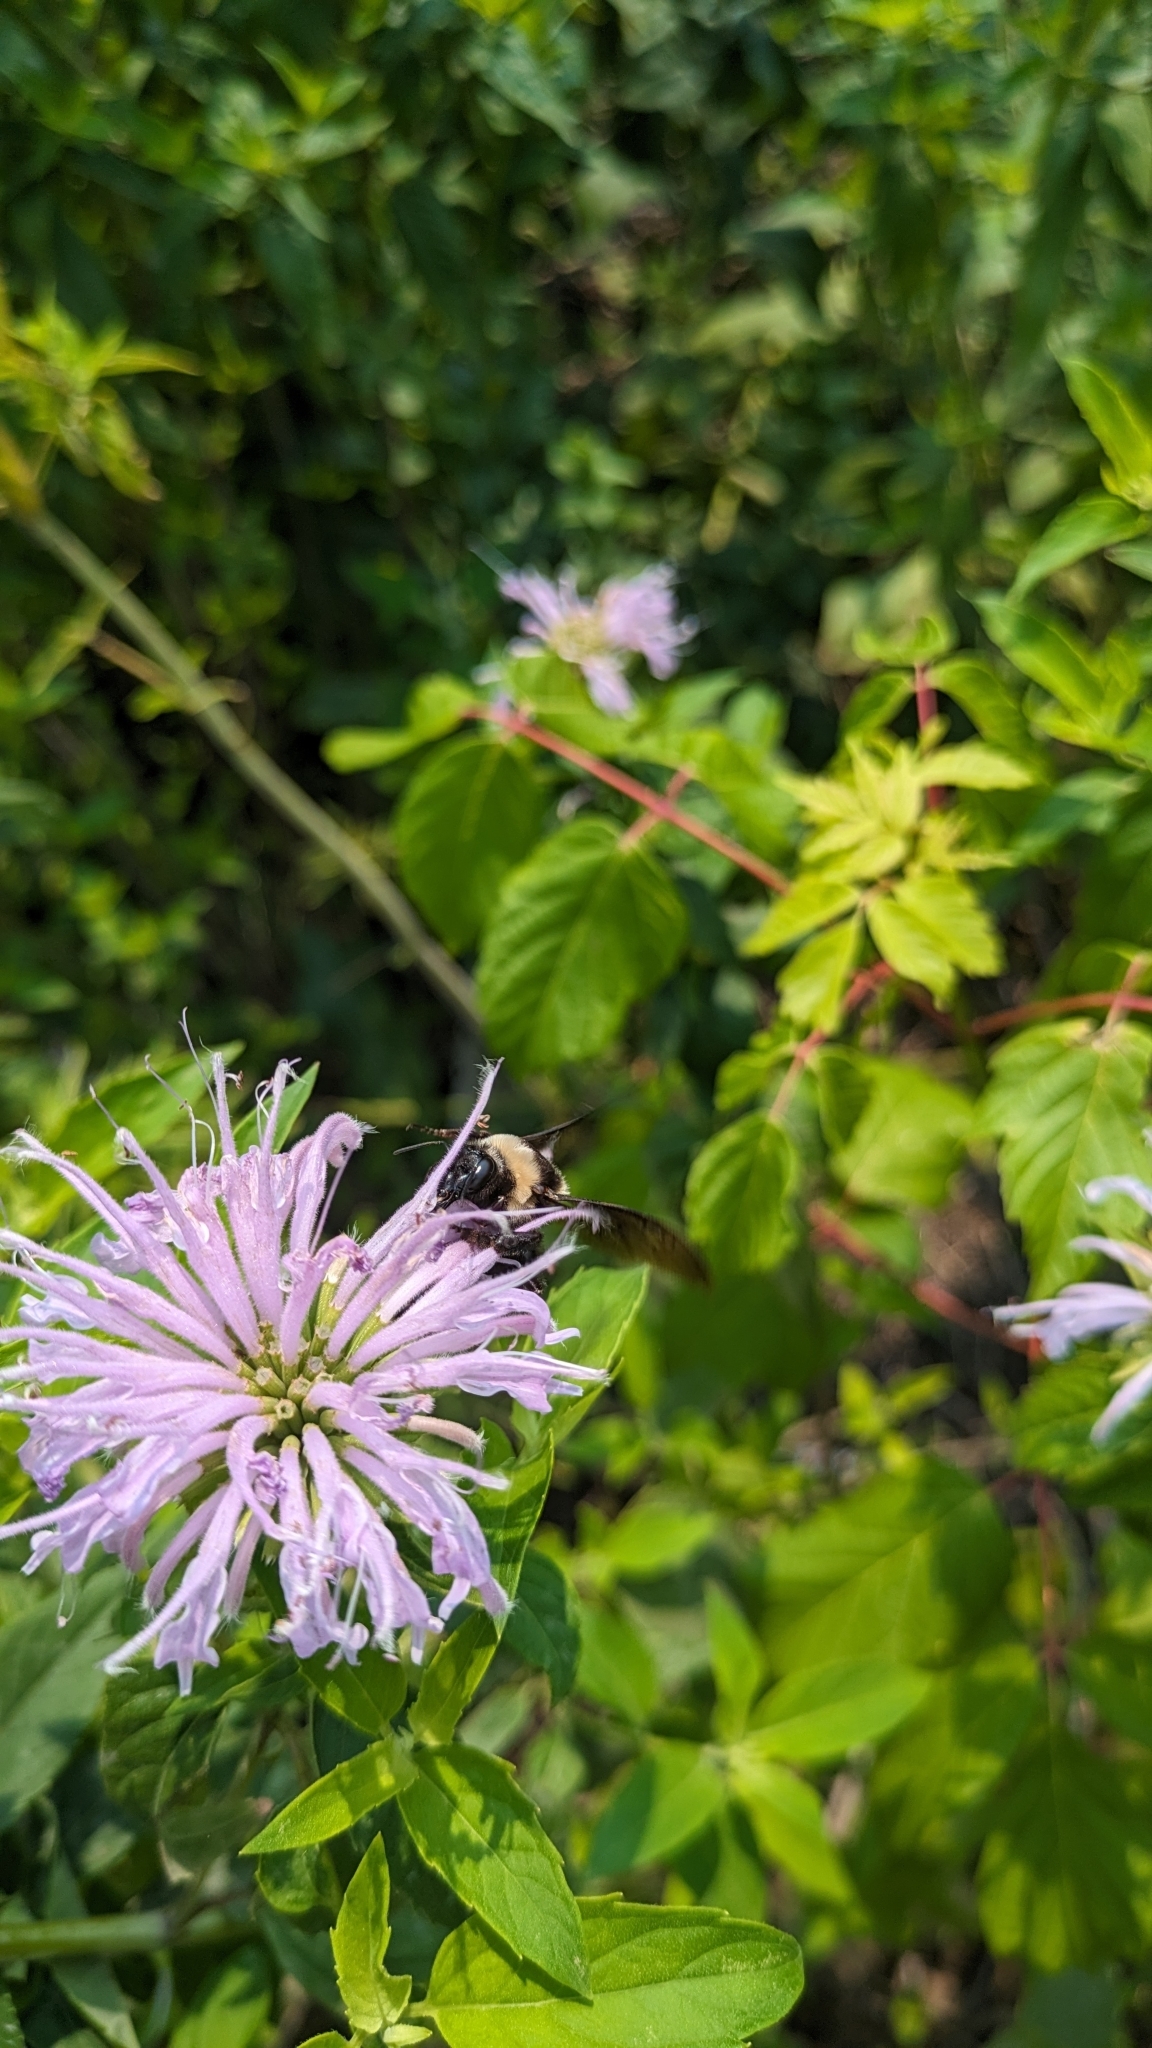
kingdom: Animalia
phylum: Arthropoda
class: Insecta
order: Hymenoptera
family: Apidae
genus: Bombus
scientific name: Bombus auricomus
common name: Black and gold bumble bee
